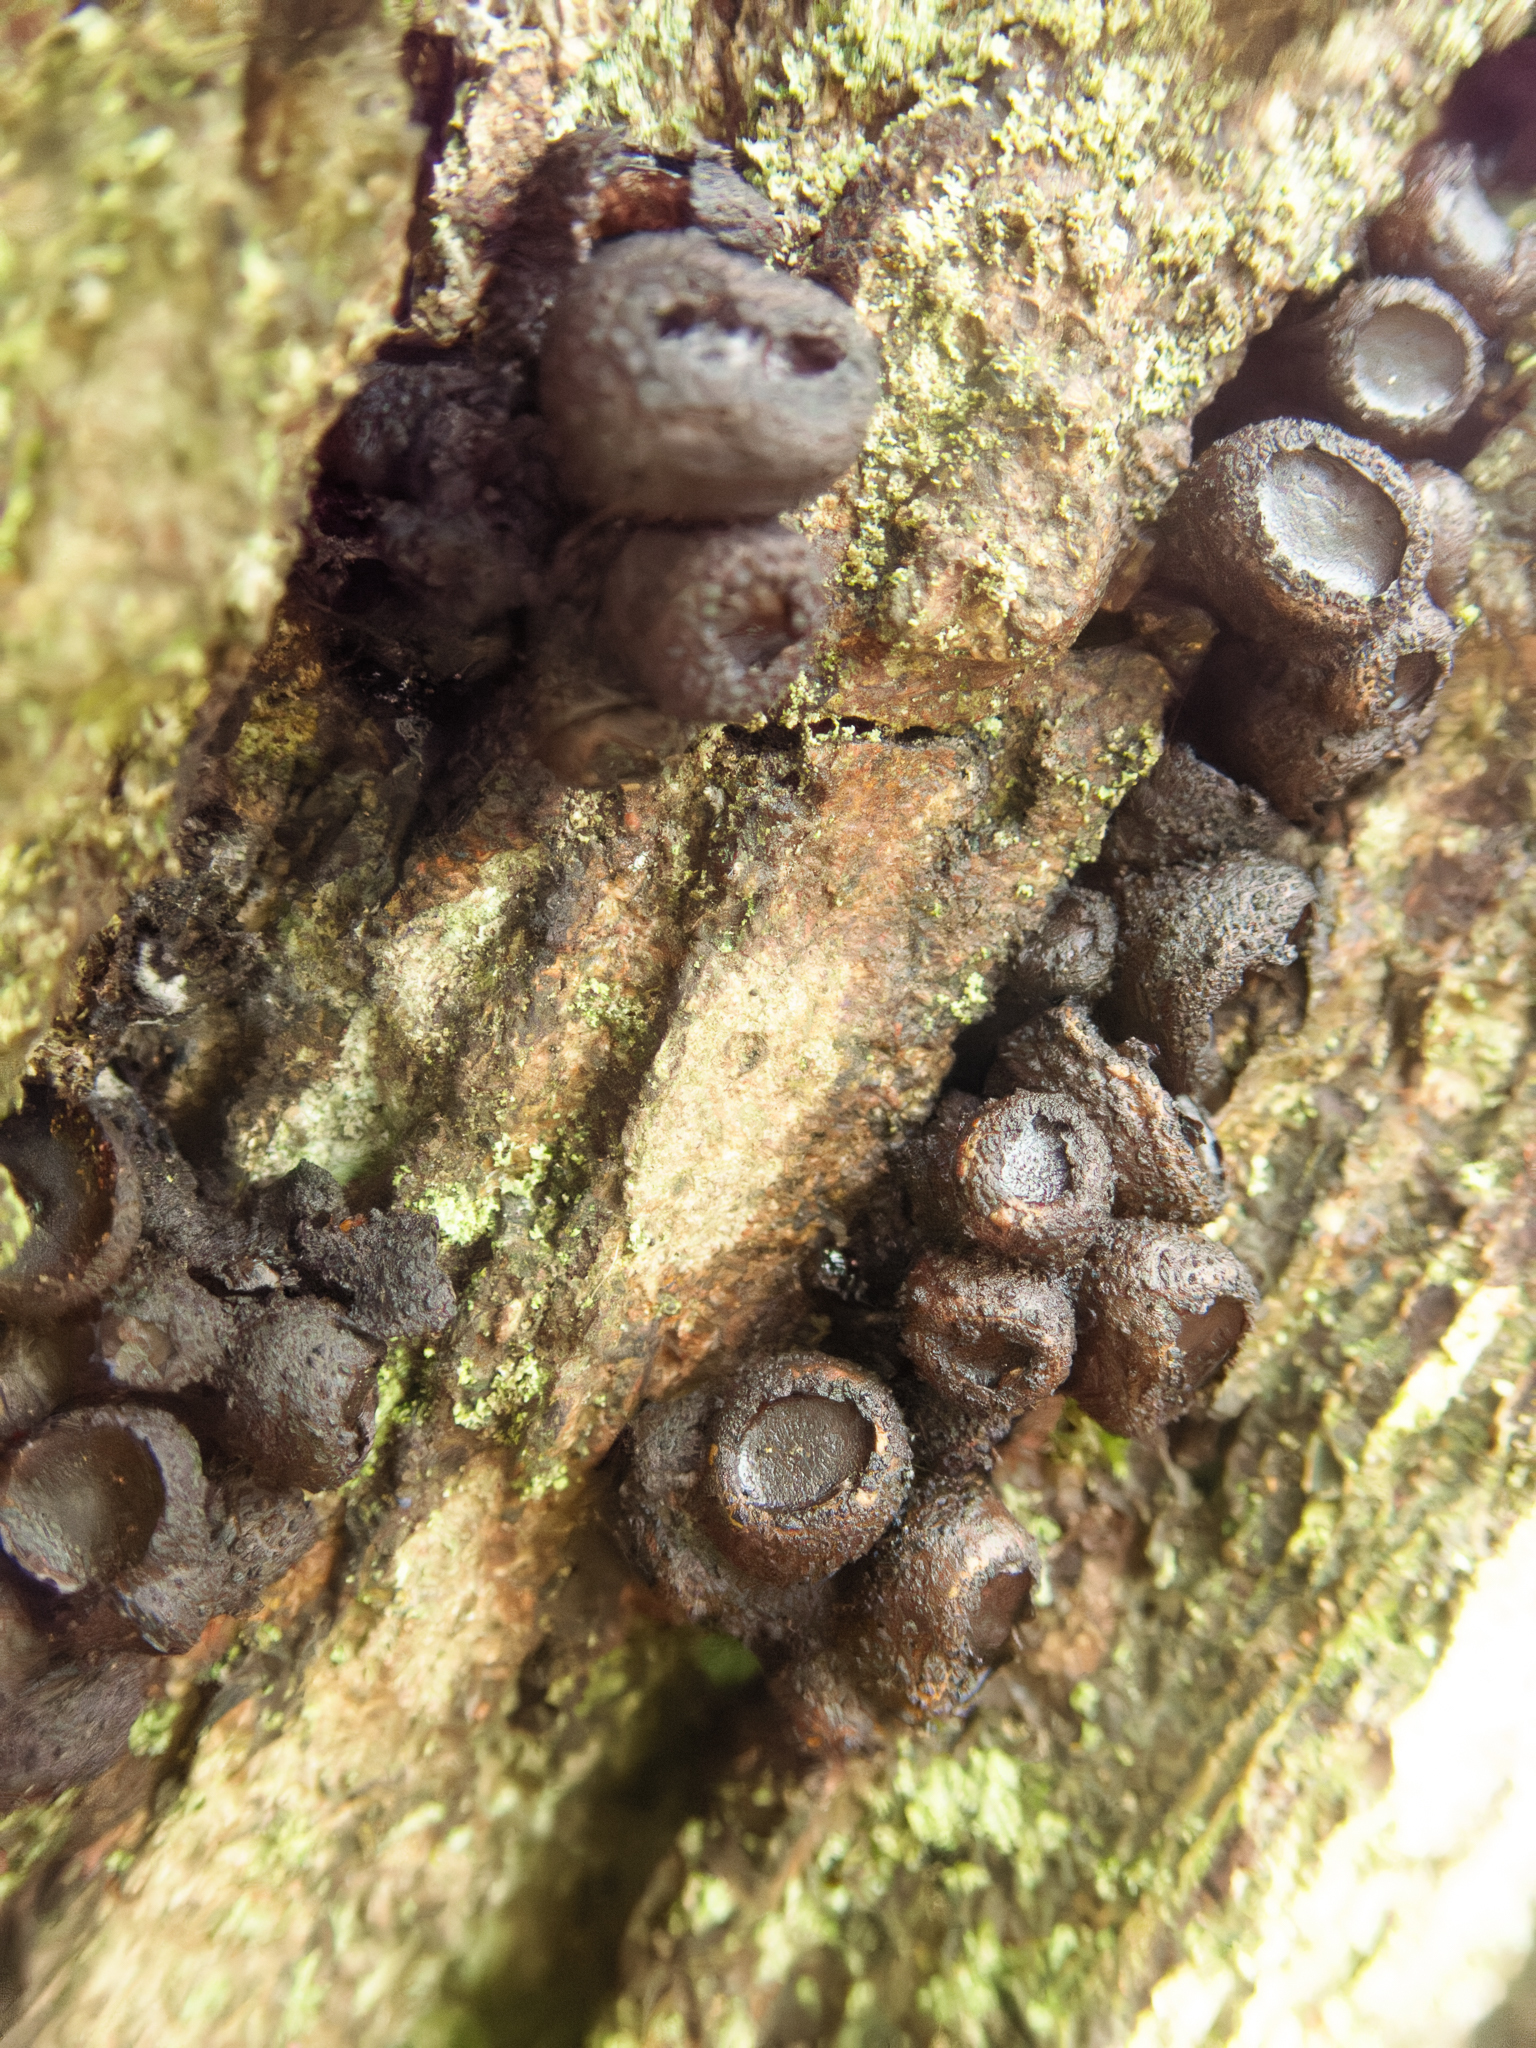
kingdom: Fungi
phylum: Ascomycota
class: Leotiomycetes
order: Phacidiales
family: Phacidiaceae
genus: Bulgaria
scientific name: Bulgaria inquinans
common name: Black bulgar
